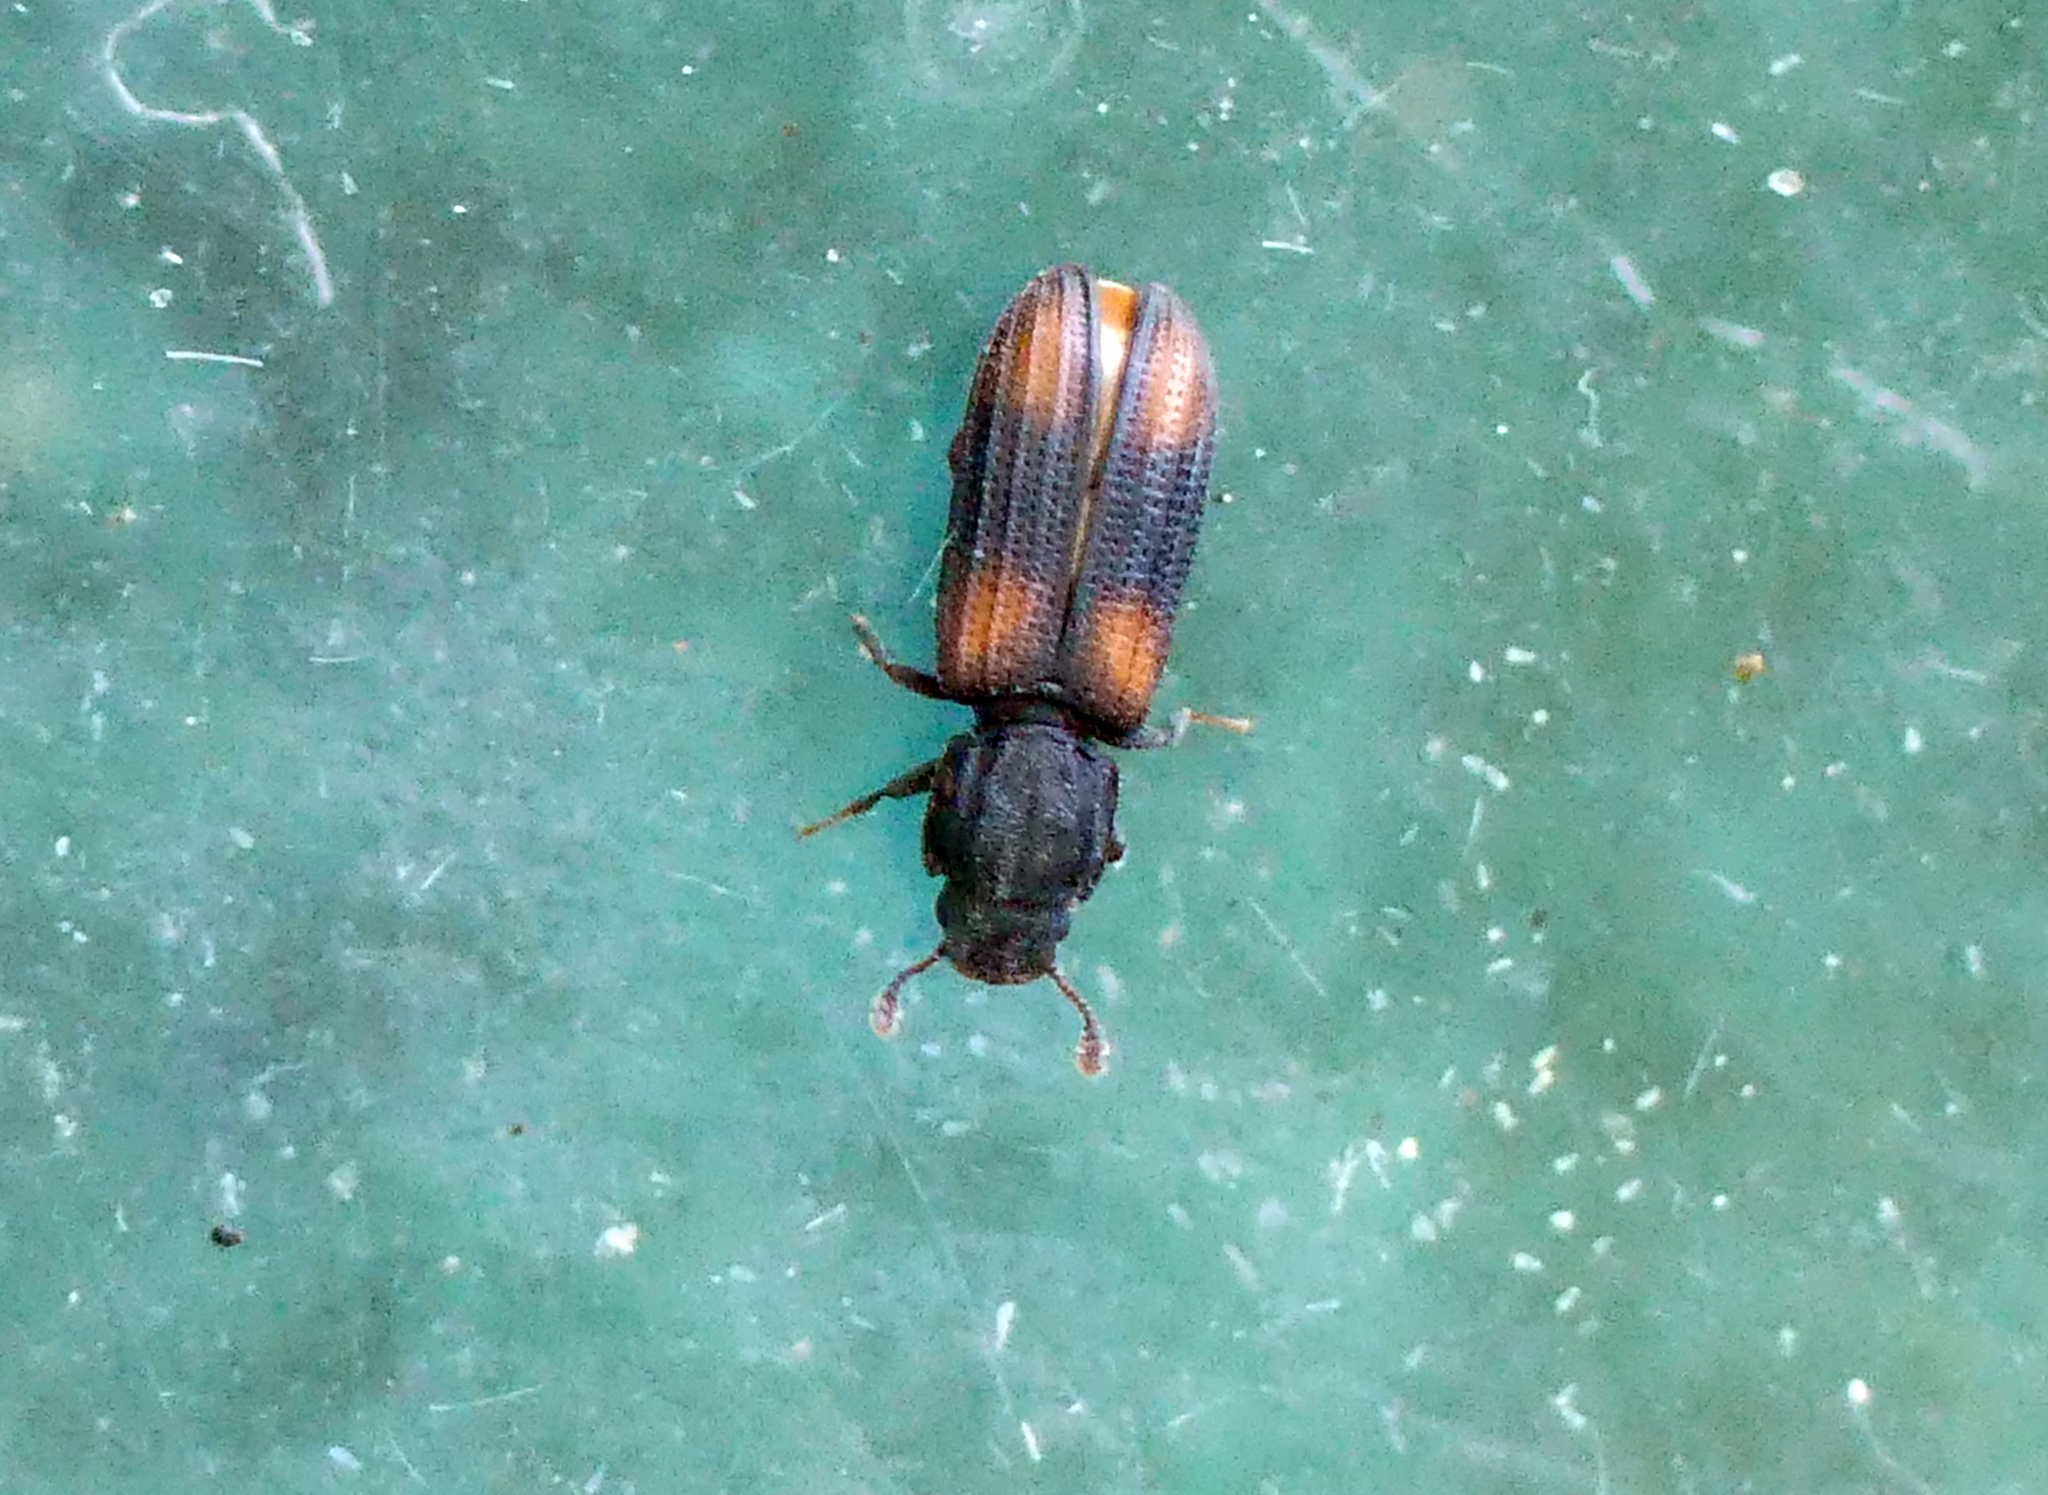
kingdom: Animalia
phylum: Arthropoda
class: Insecta
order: Coleoptera
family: Zopheridae
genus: Bitoma
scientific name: Bitoma crenata
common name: Bark beetle
